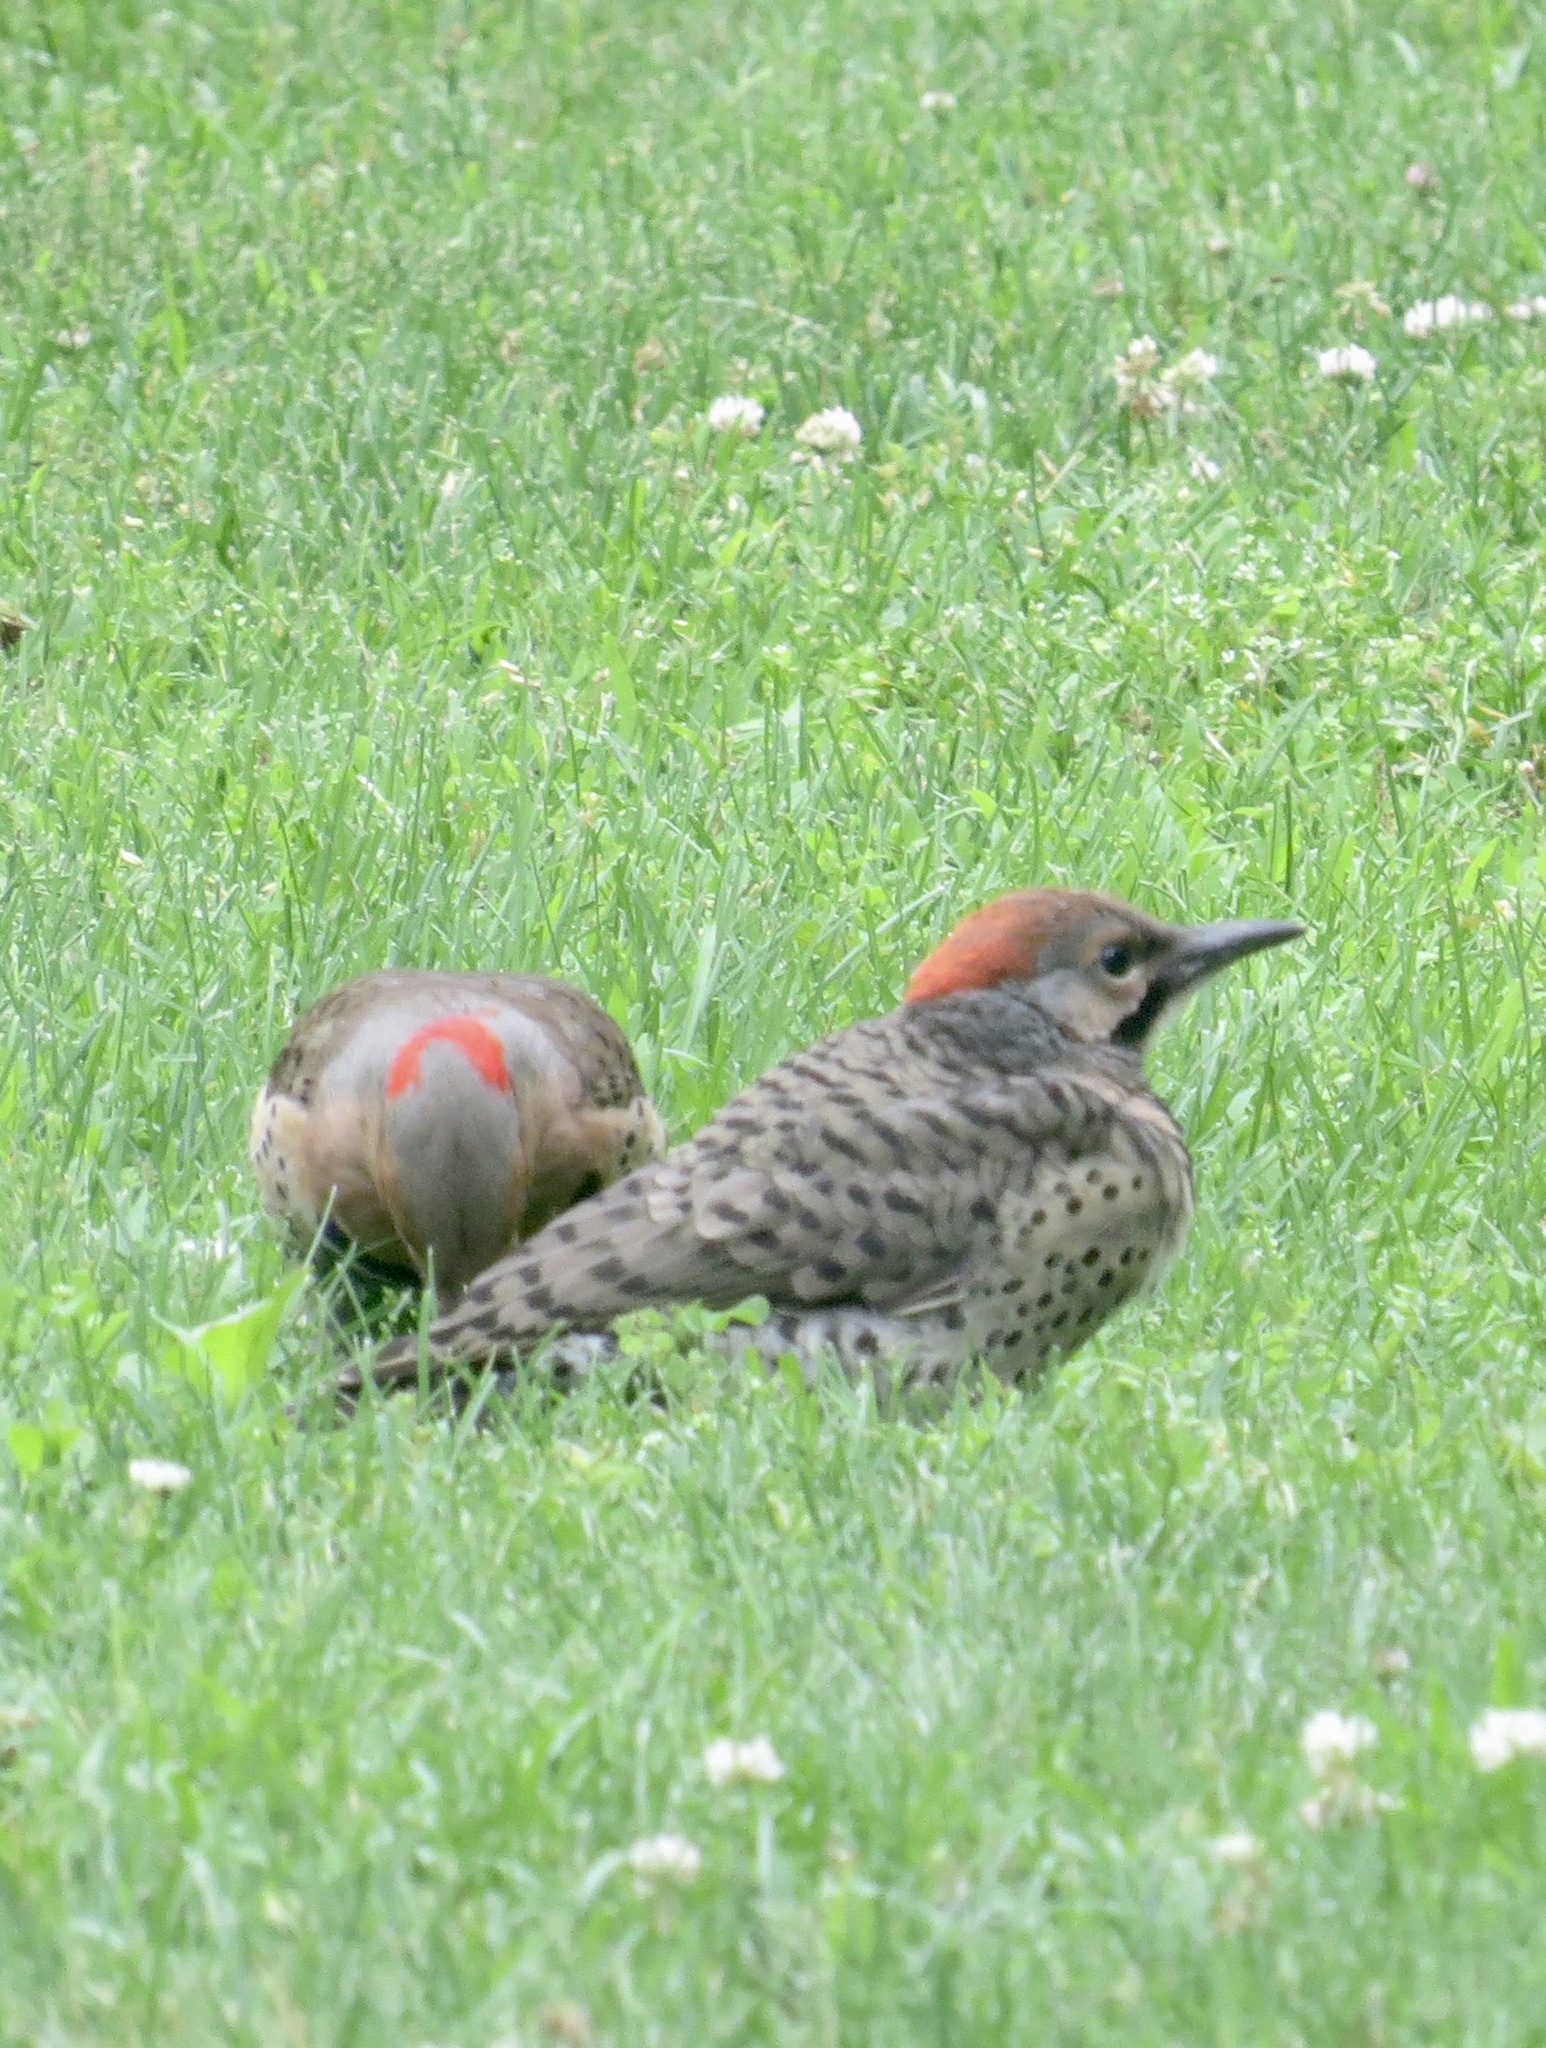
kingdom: Animalia
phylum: Chordata
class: Aves
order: Piciformes
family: Picidae
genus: Colaptes
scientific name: Colaptes auratus
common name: Northern flicker
